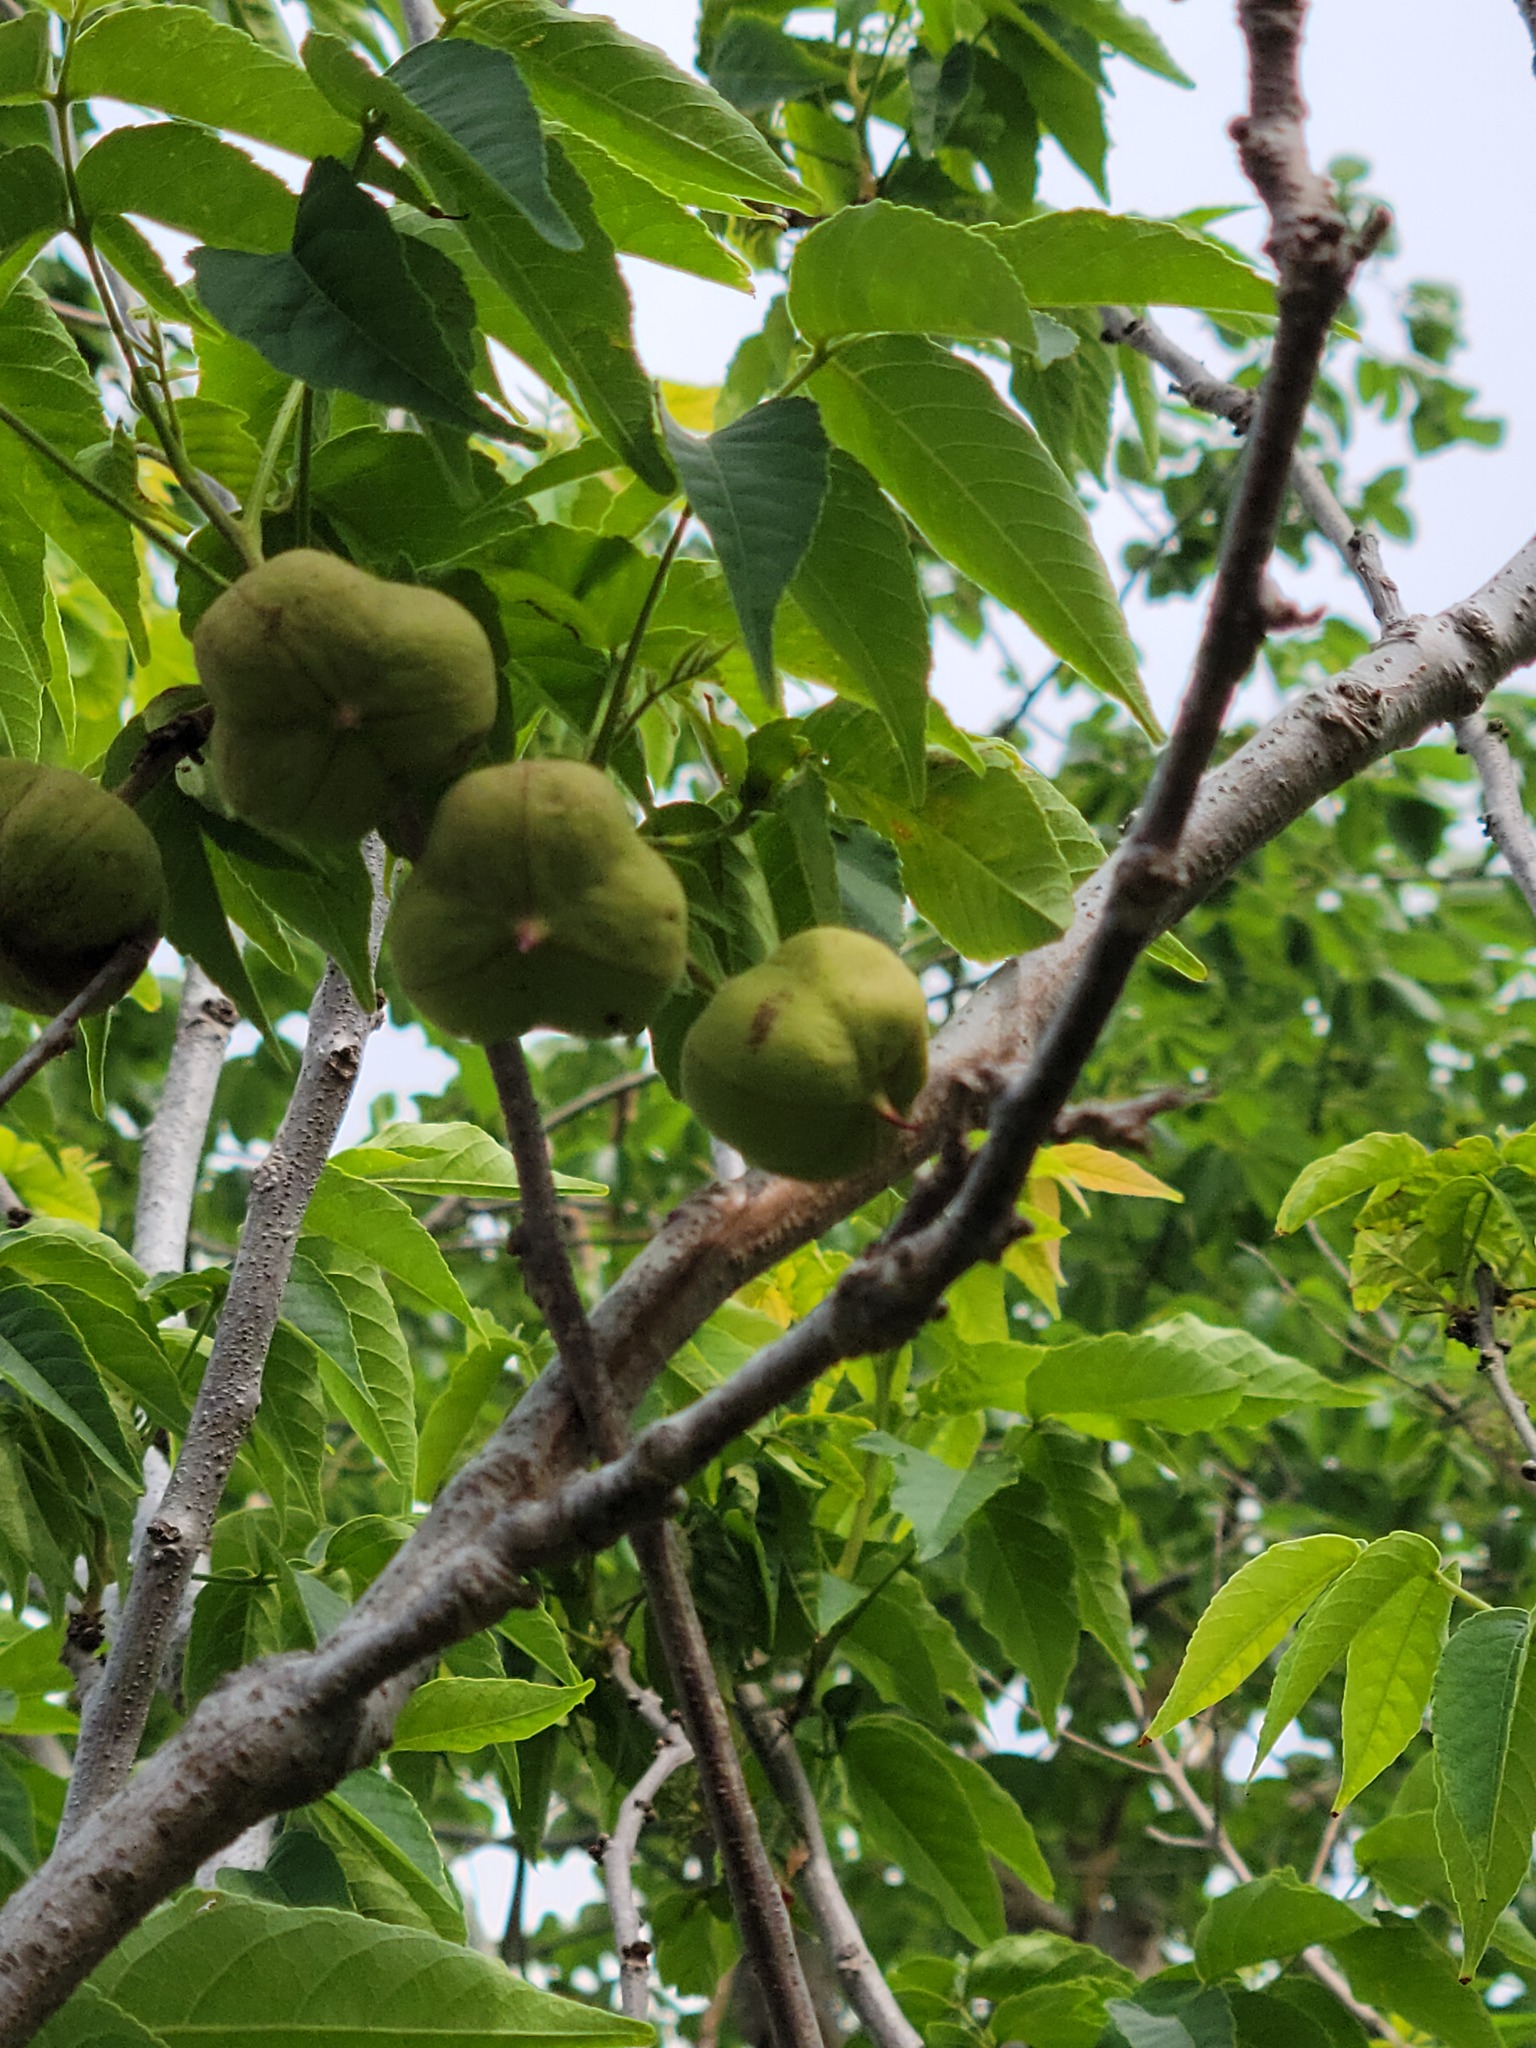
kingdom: Plantae
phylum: Tracheophyta
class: Magnoliopsida
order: Sapindales
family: Sapindaceae
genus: Ungnadia
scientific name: Ungnadia speciosa
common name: Texas-buckeye
